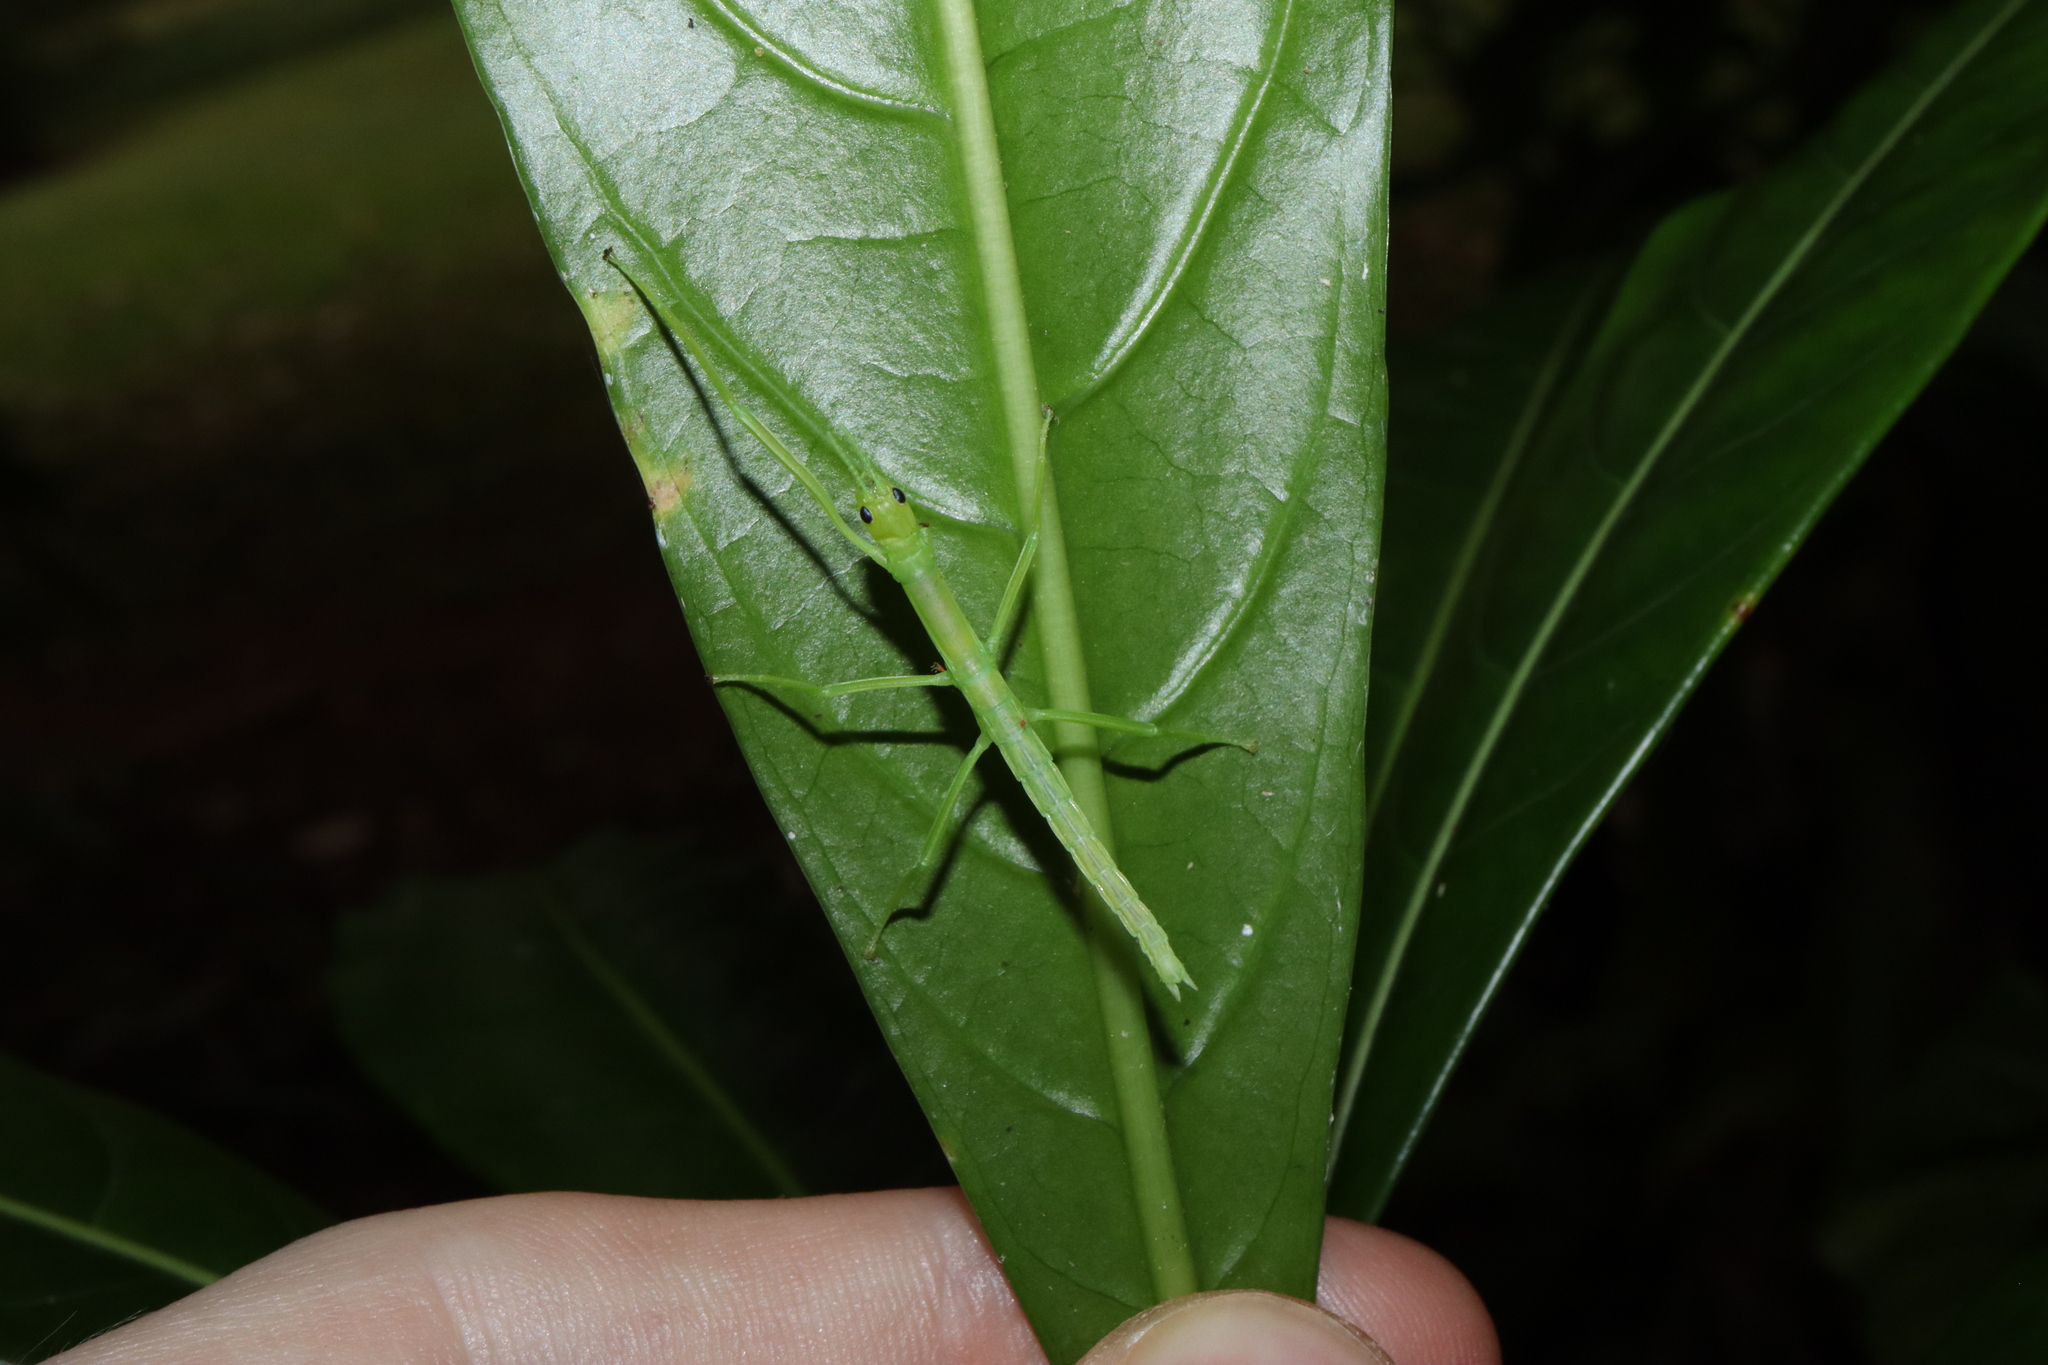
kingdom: Animalia
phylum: Arthropoda
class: Insecta
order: Phasmida
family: Phasmatidae
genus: Megacrania
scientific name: Megacrania batesii
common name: Peppermint stick-insect
